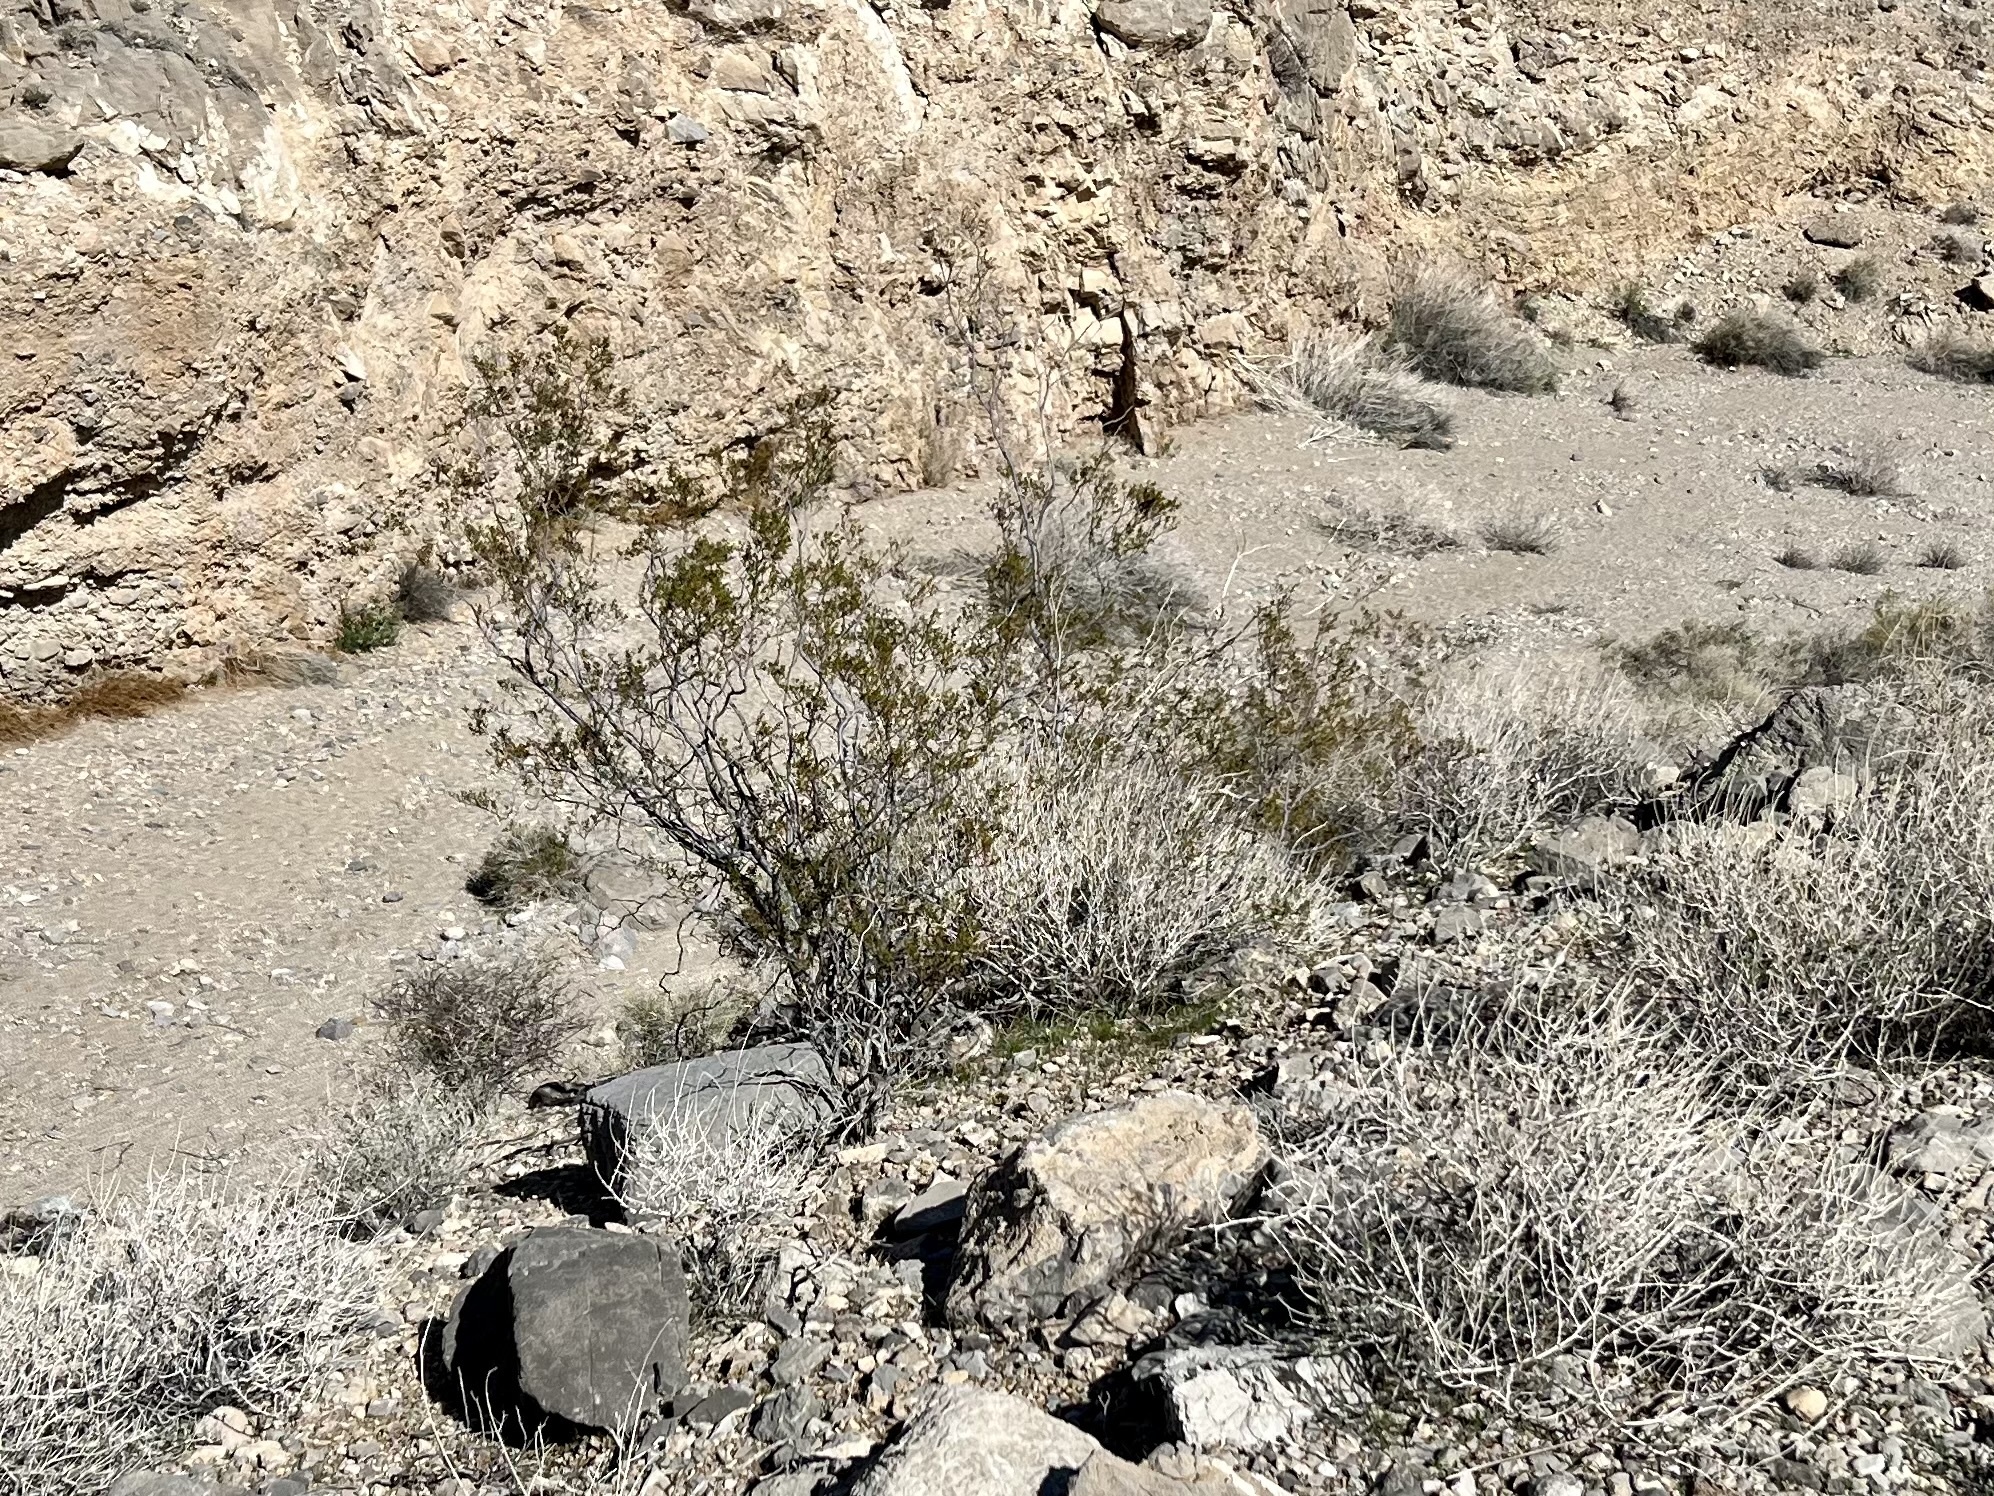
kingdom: Plantae
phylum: Tracheophyta
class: Magnoliopsida
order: Zygophyllales
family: Zygophyllaceae
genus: Larrea
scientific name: Larrea tridentata
